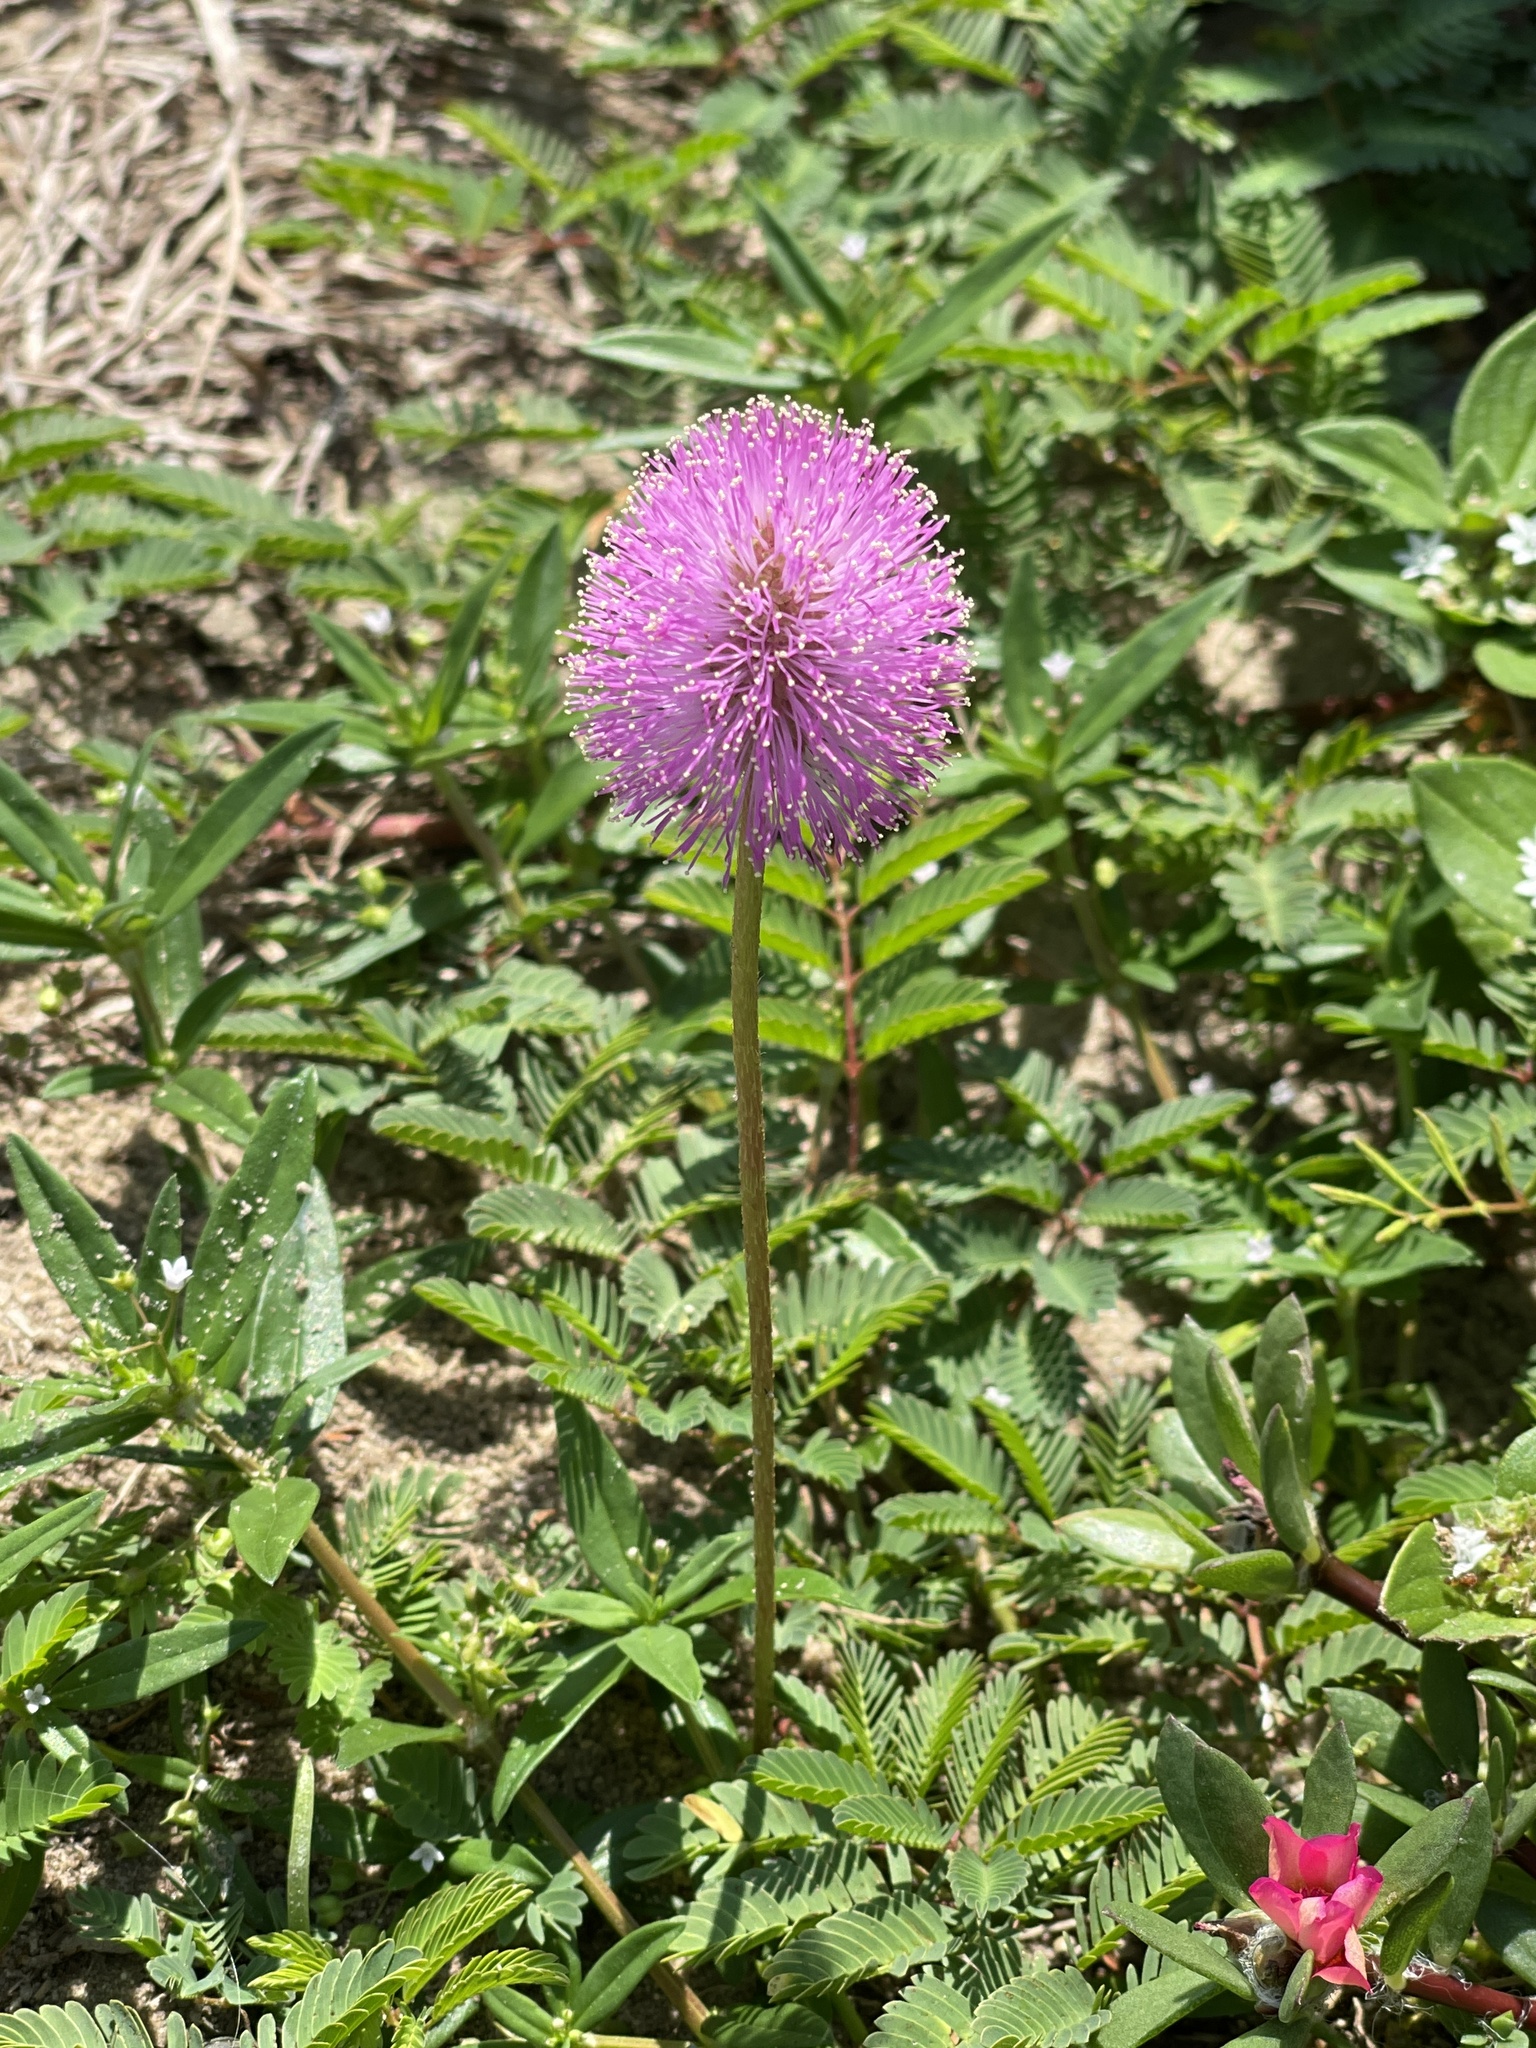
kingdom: Plantae
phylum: Tracheophyta
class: Magnoliopsida
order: Fabales
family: Fabaceae
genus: Mimosa
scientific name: Mimosa strigillosa
